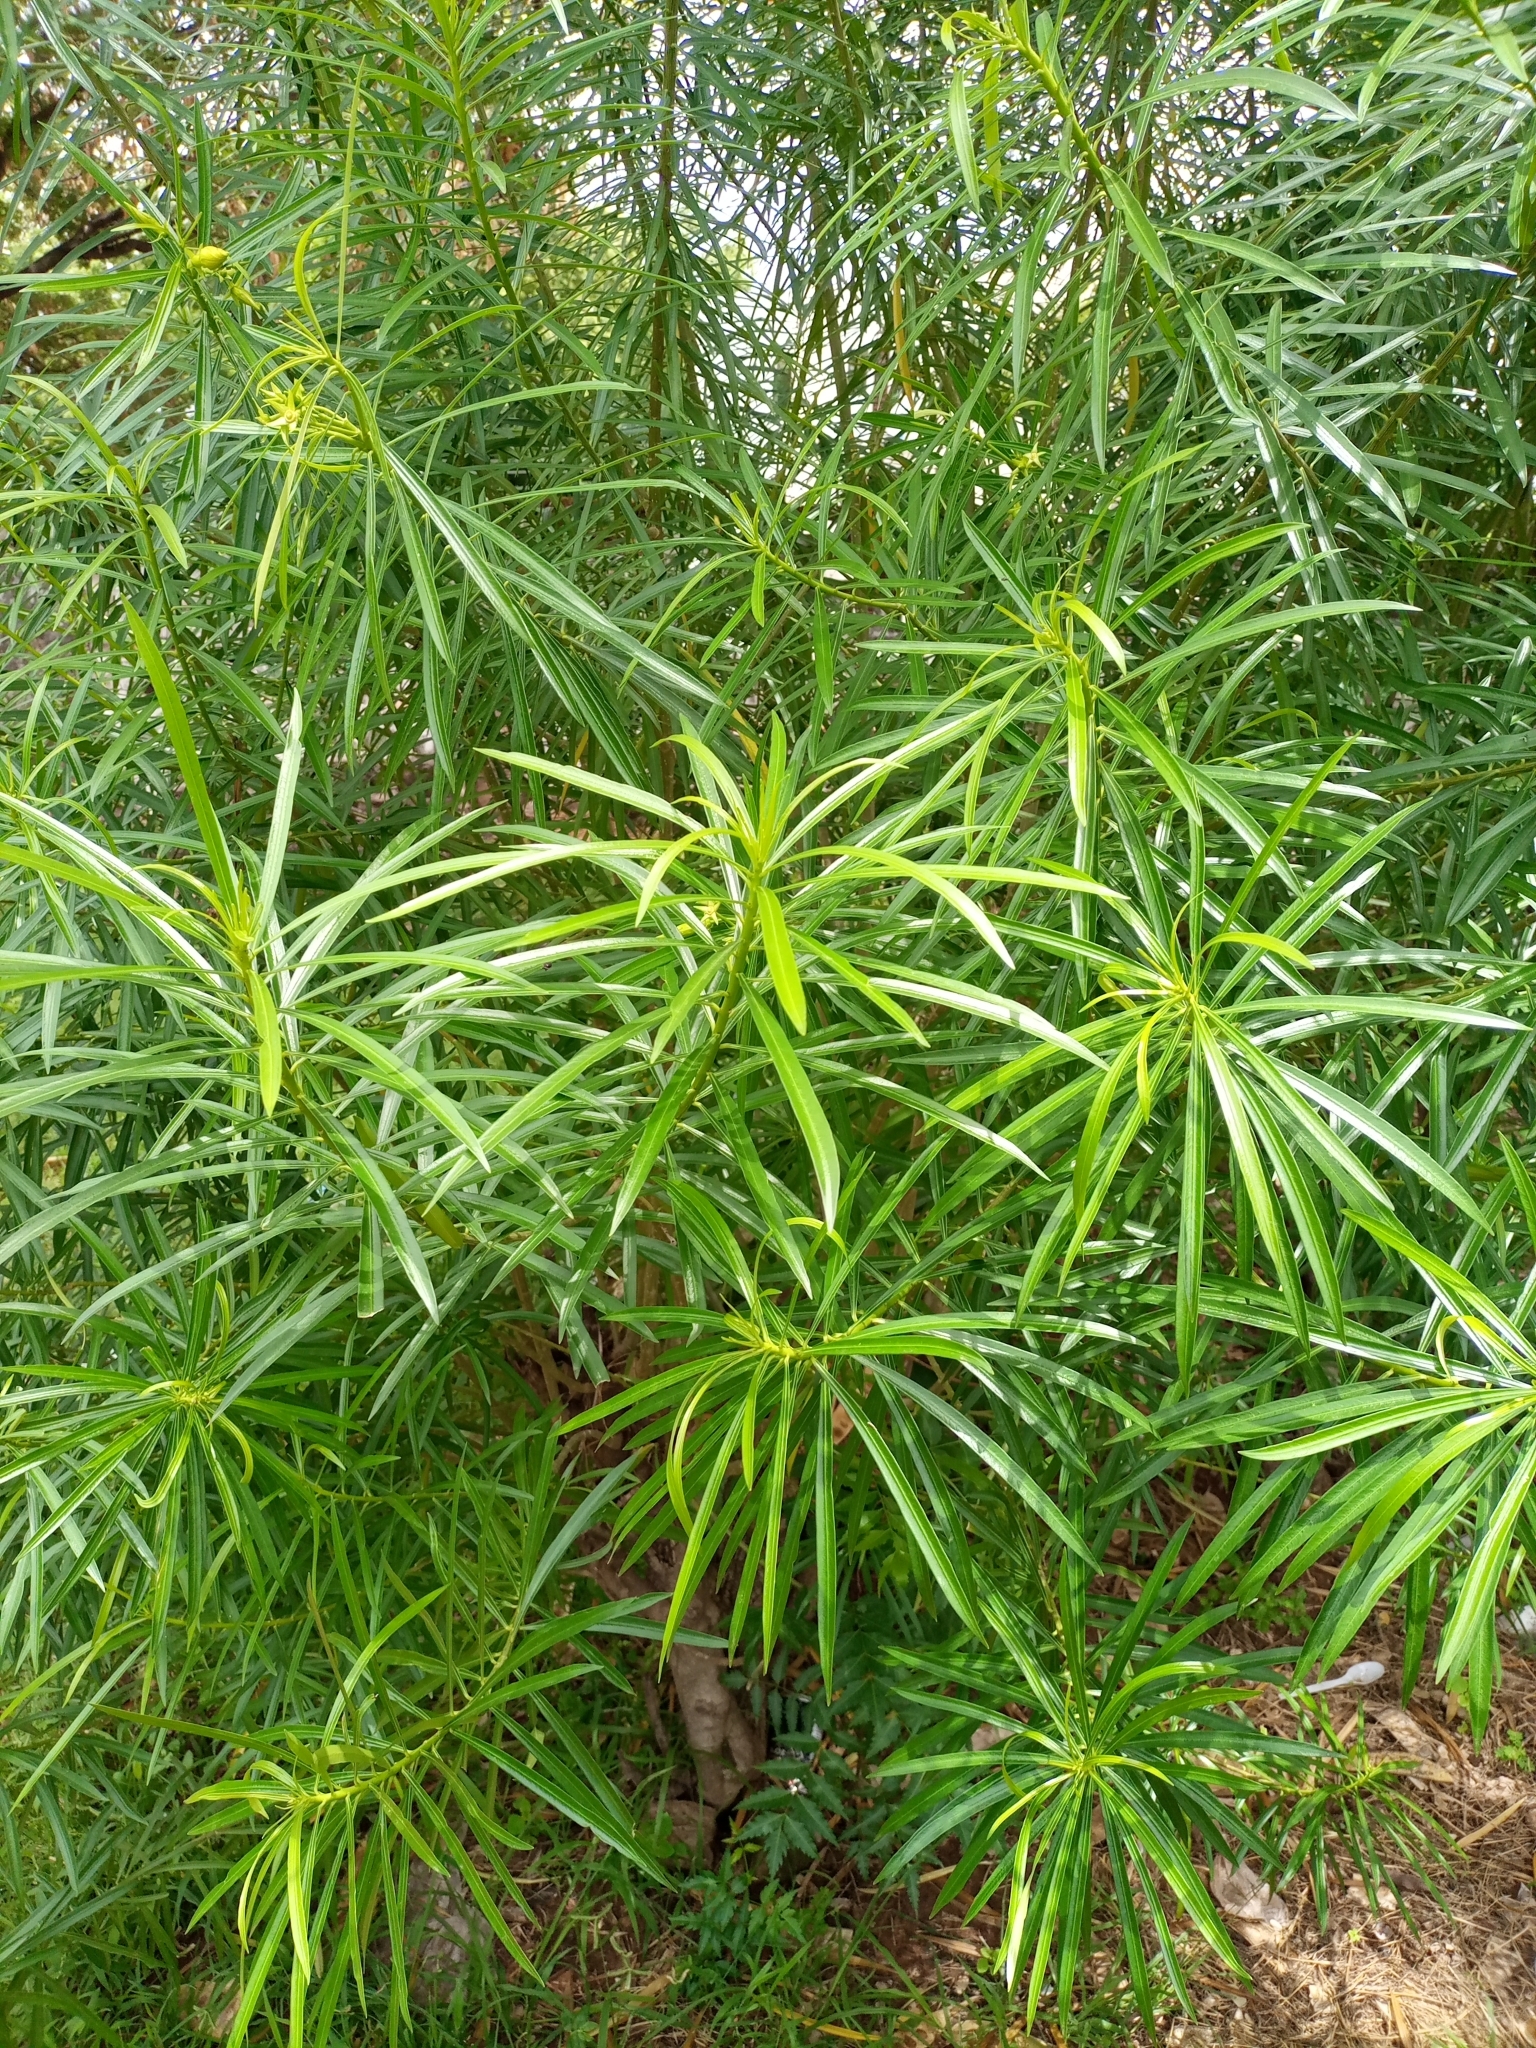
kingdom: Plantae
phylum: Tracheophyta
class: Magnoliopsida
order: Gentianales
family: Apocynaceae
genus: Cascabela
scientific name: Cascabela thevetia
